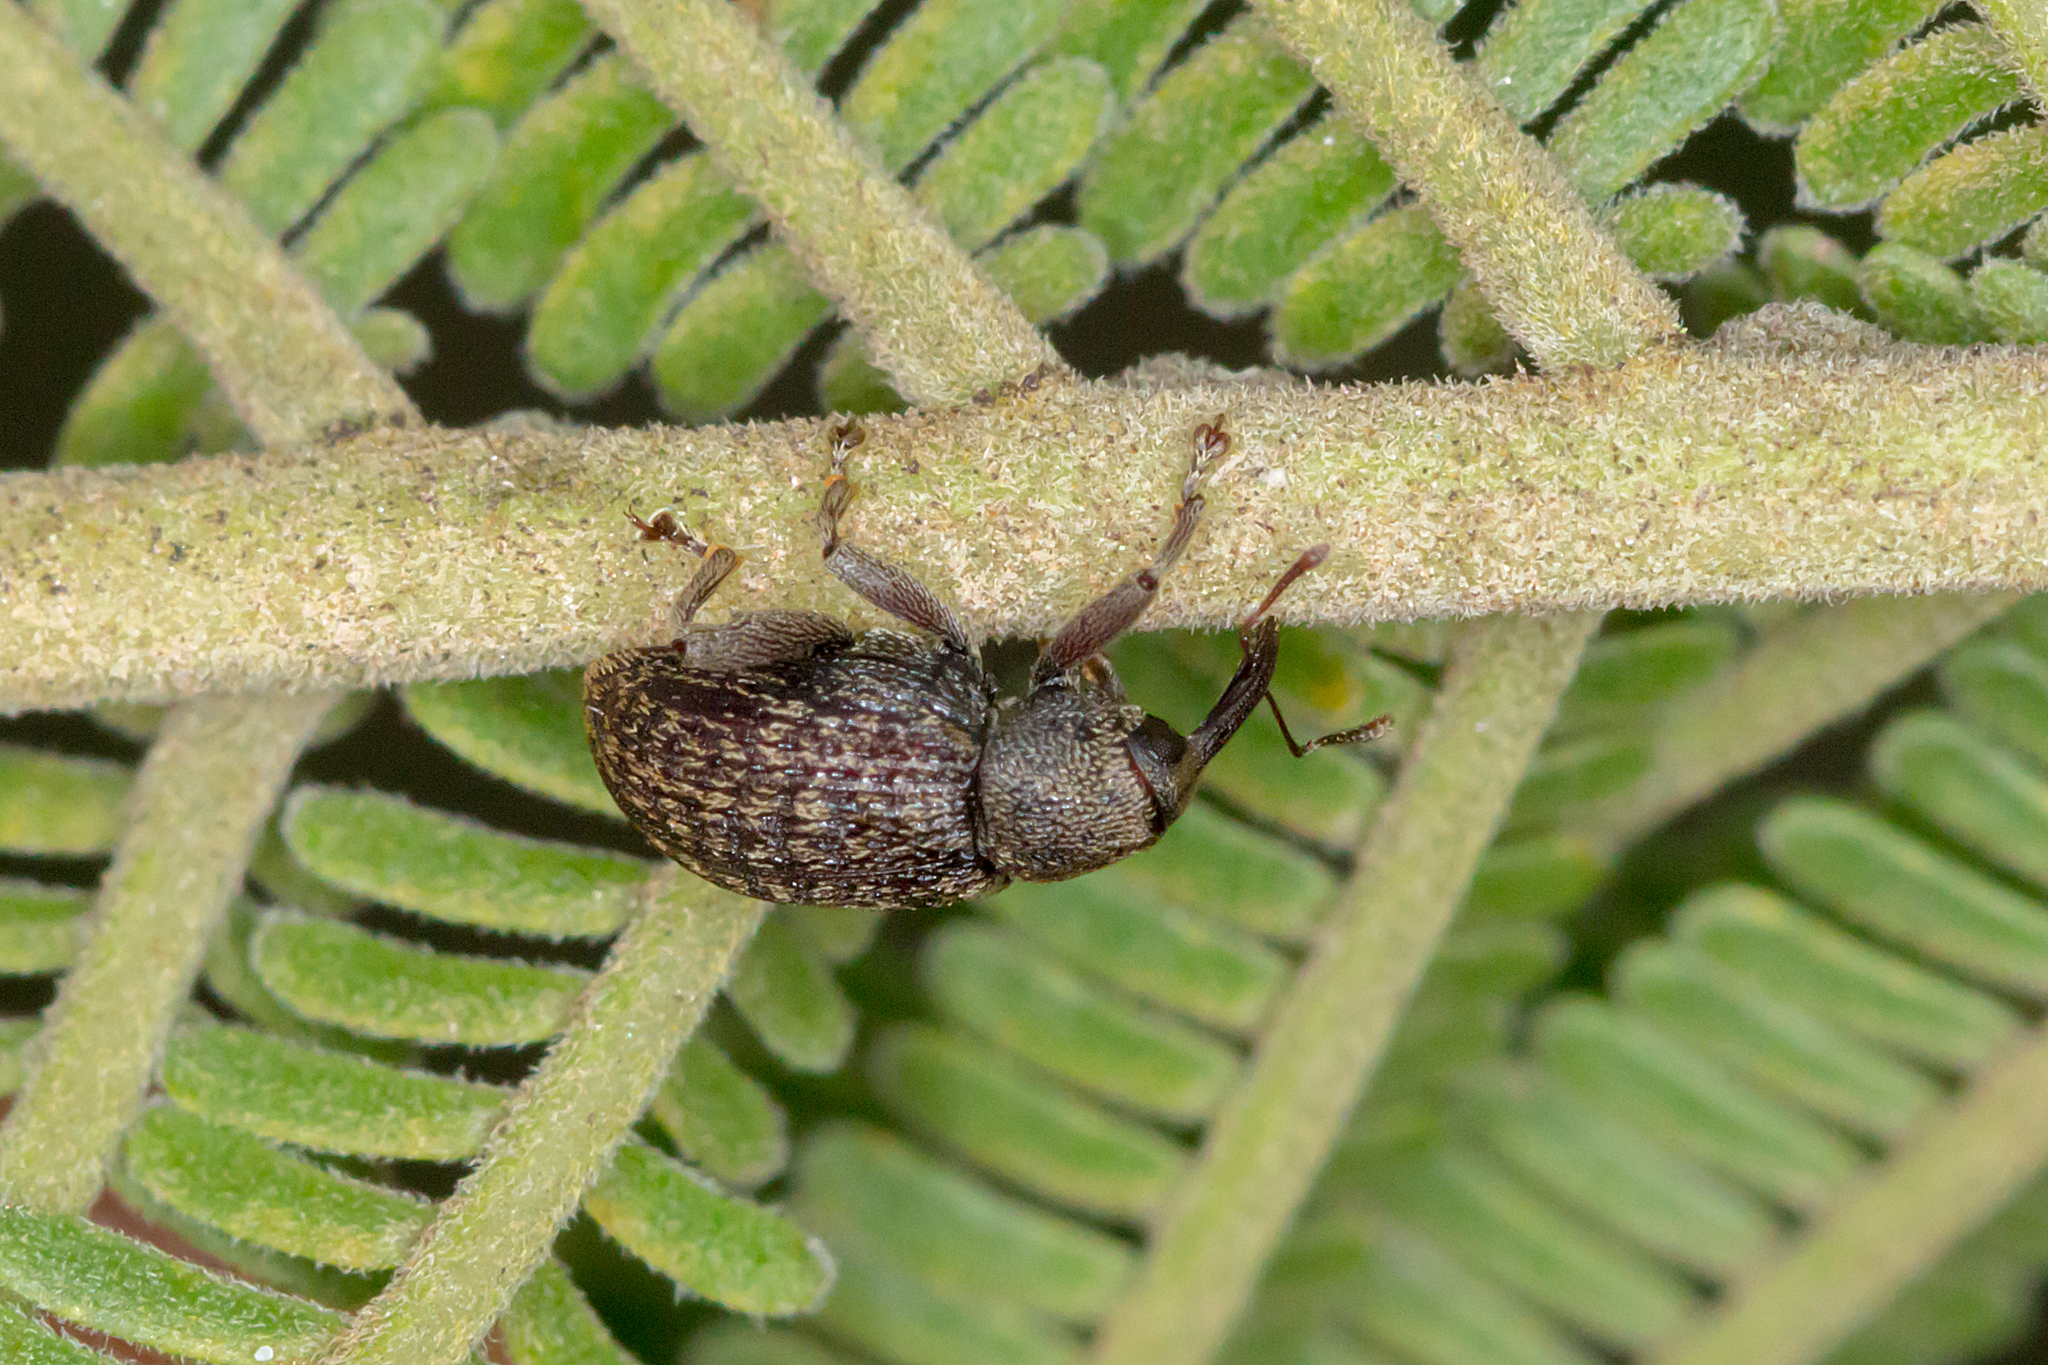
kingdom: Animalia
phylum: Arthropoda
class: Insecta
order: Coleoptera
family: Curculionidae
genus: Melanterius
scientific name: Melanterius maculatus
